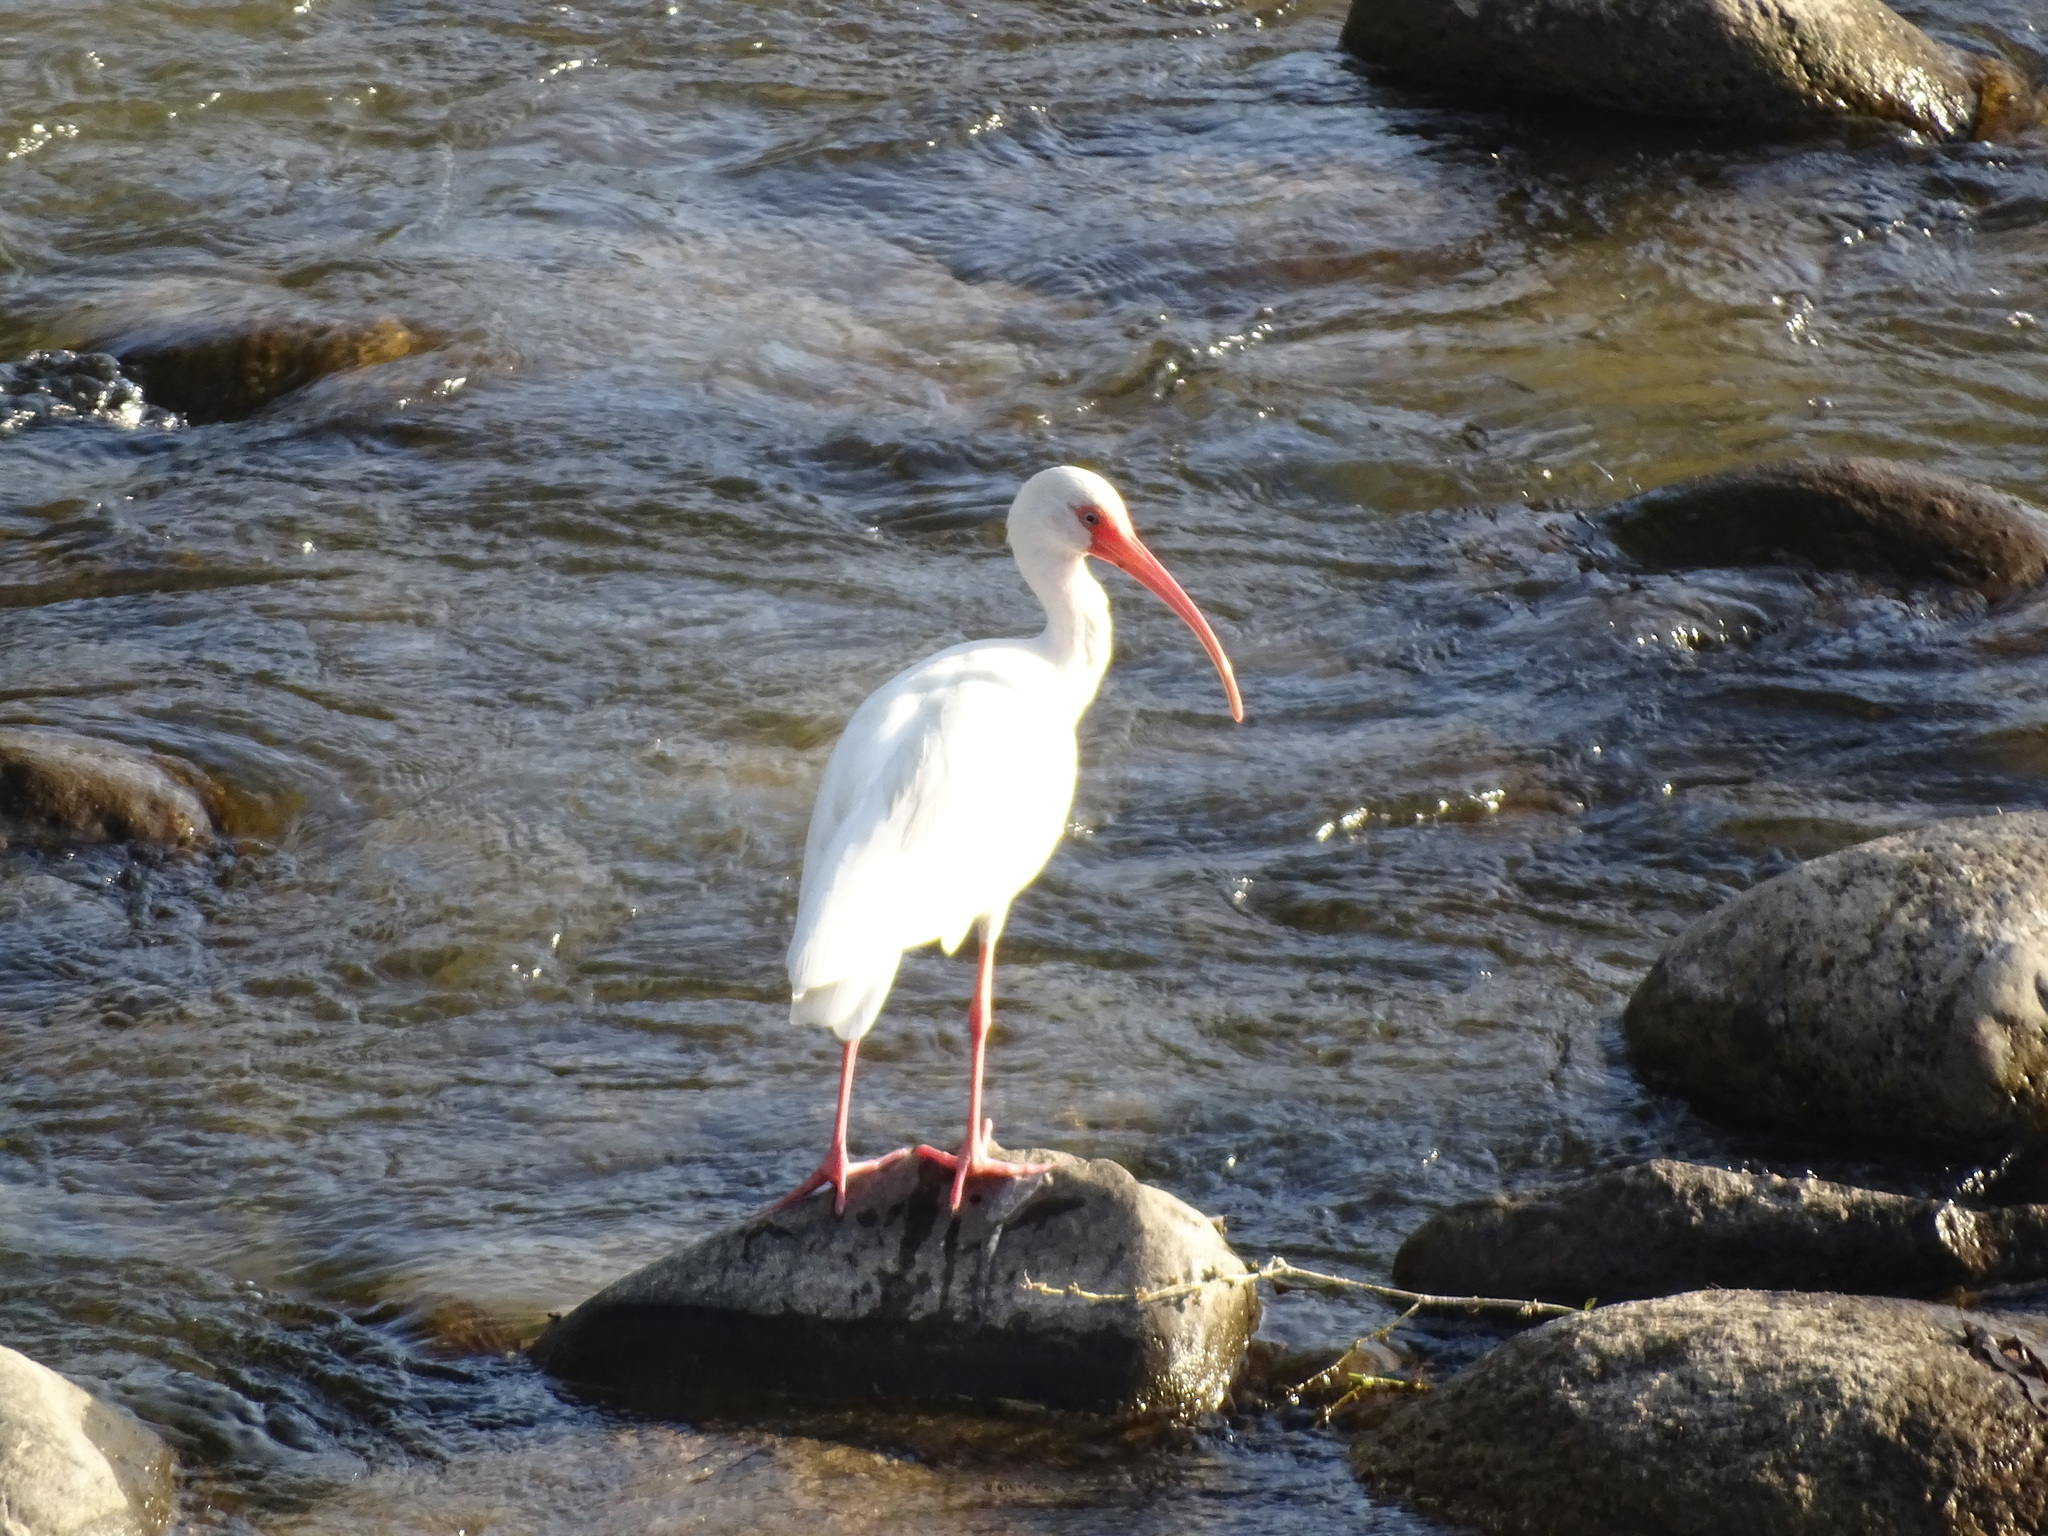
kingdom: Animalia
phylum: Chordata
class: Aves
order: Pelecaniformes
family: Threskiornithidae
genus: Eudocimus
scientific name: Eudocimus albus
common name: White ibis
